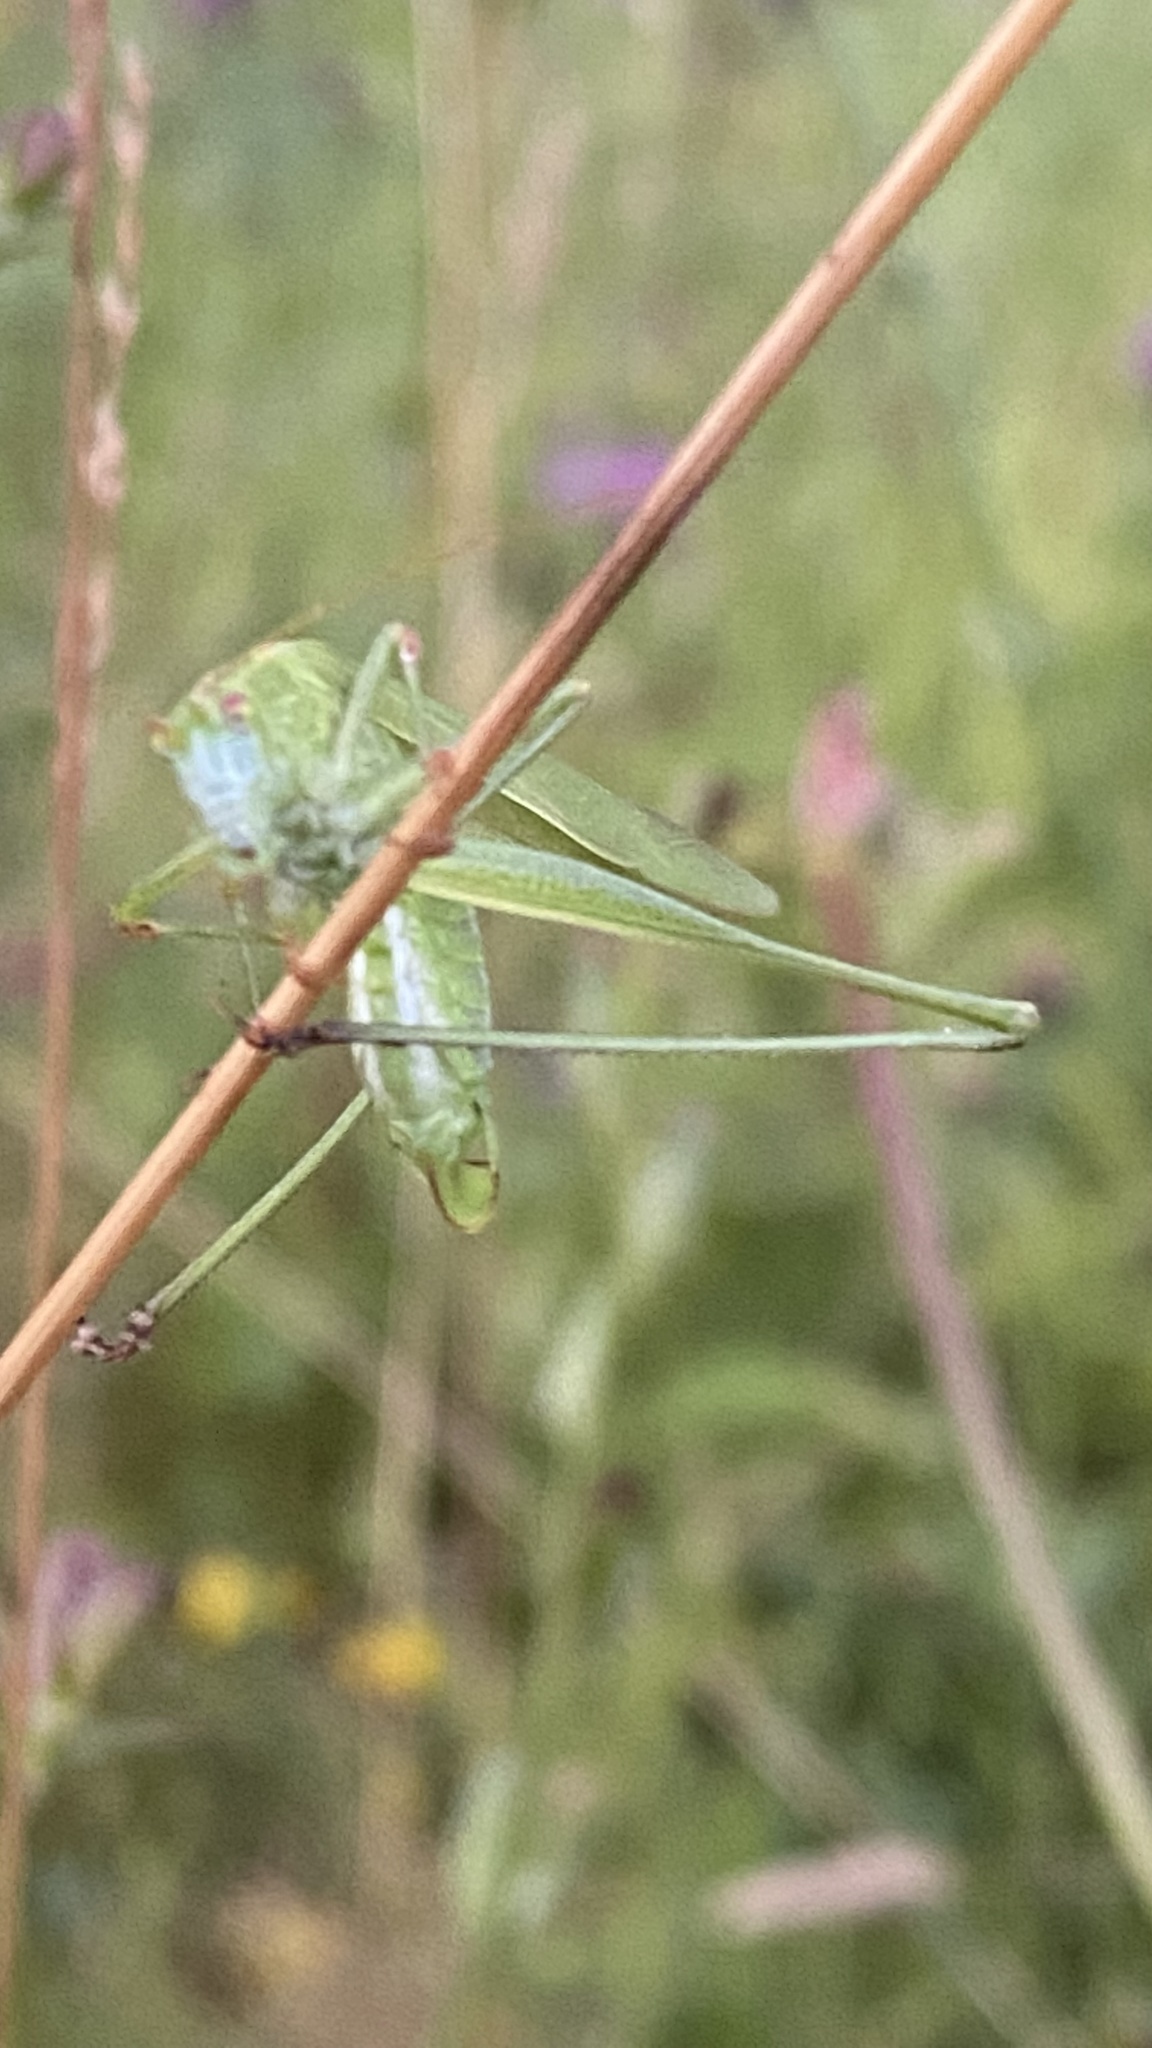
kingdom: Animalia
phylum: Arthropoda
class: Insecta
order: Orthoptera
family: Tettigoniidae
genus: Phaneroptera
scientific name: Phaneroptera falcata
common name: Sickle-bearing bush-cricket
